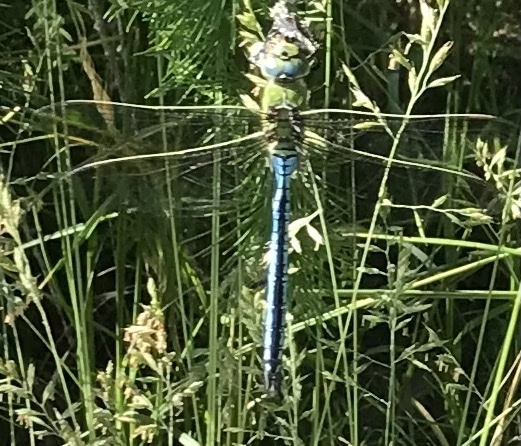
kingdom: Animalia
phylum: Arthropoda
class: Insecta
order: Odonata
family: Aeshnidae
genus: Anax
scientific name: Anax imperator
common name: Emperor dragonfly
